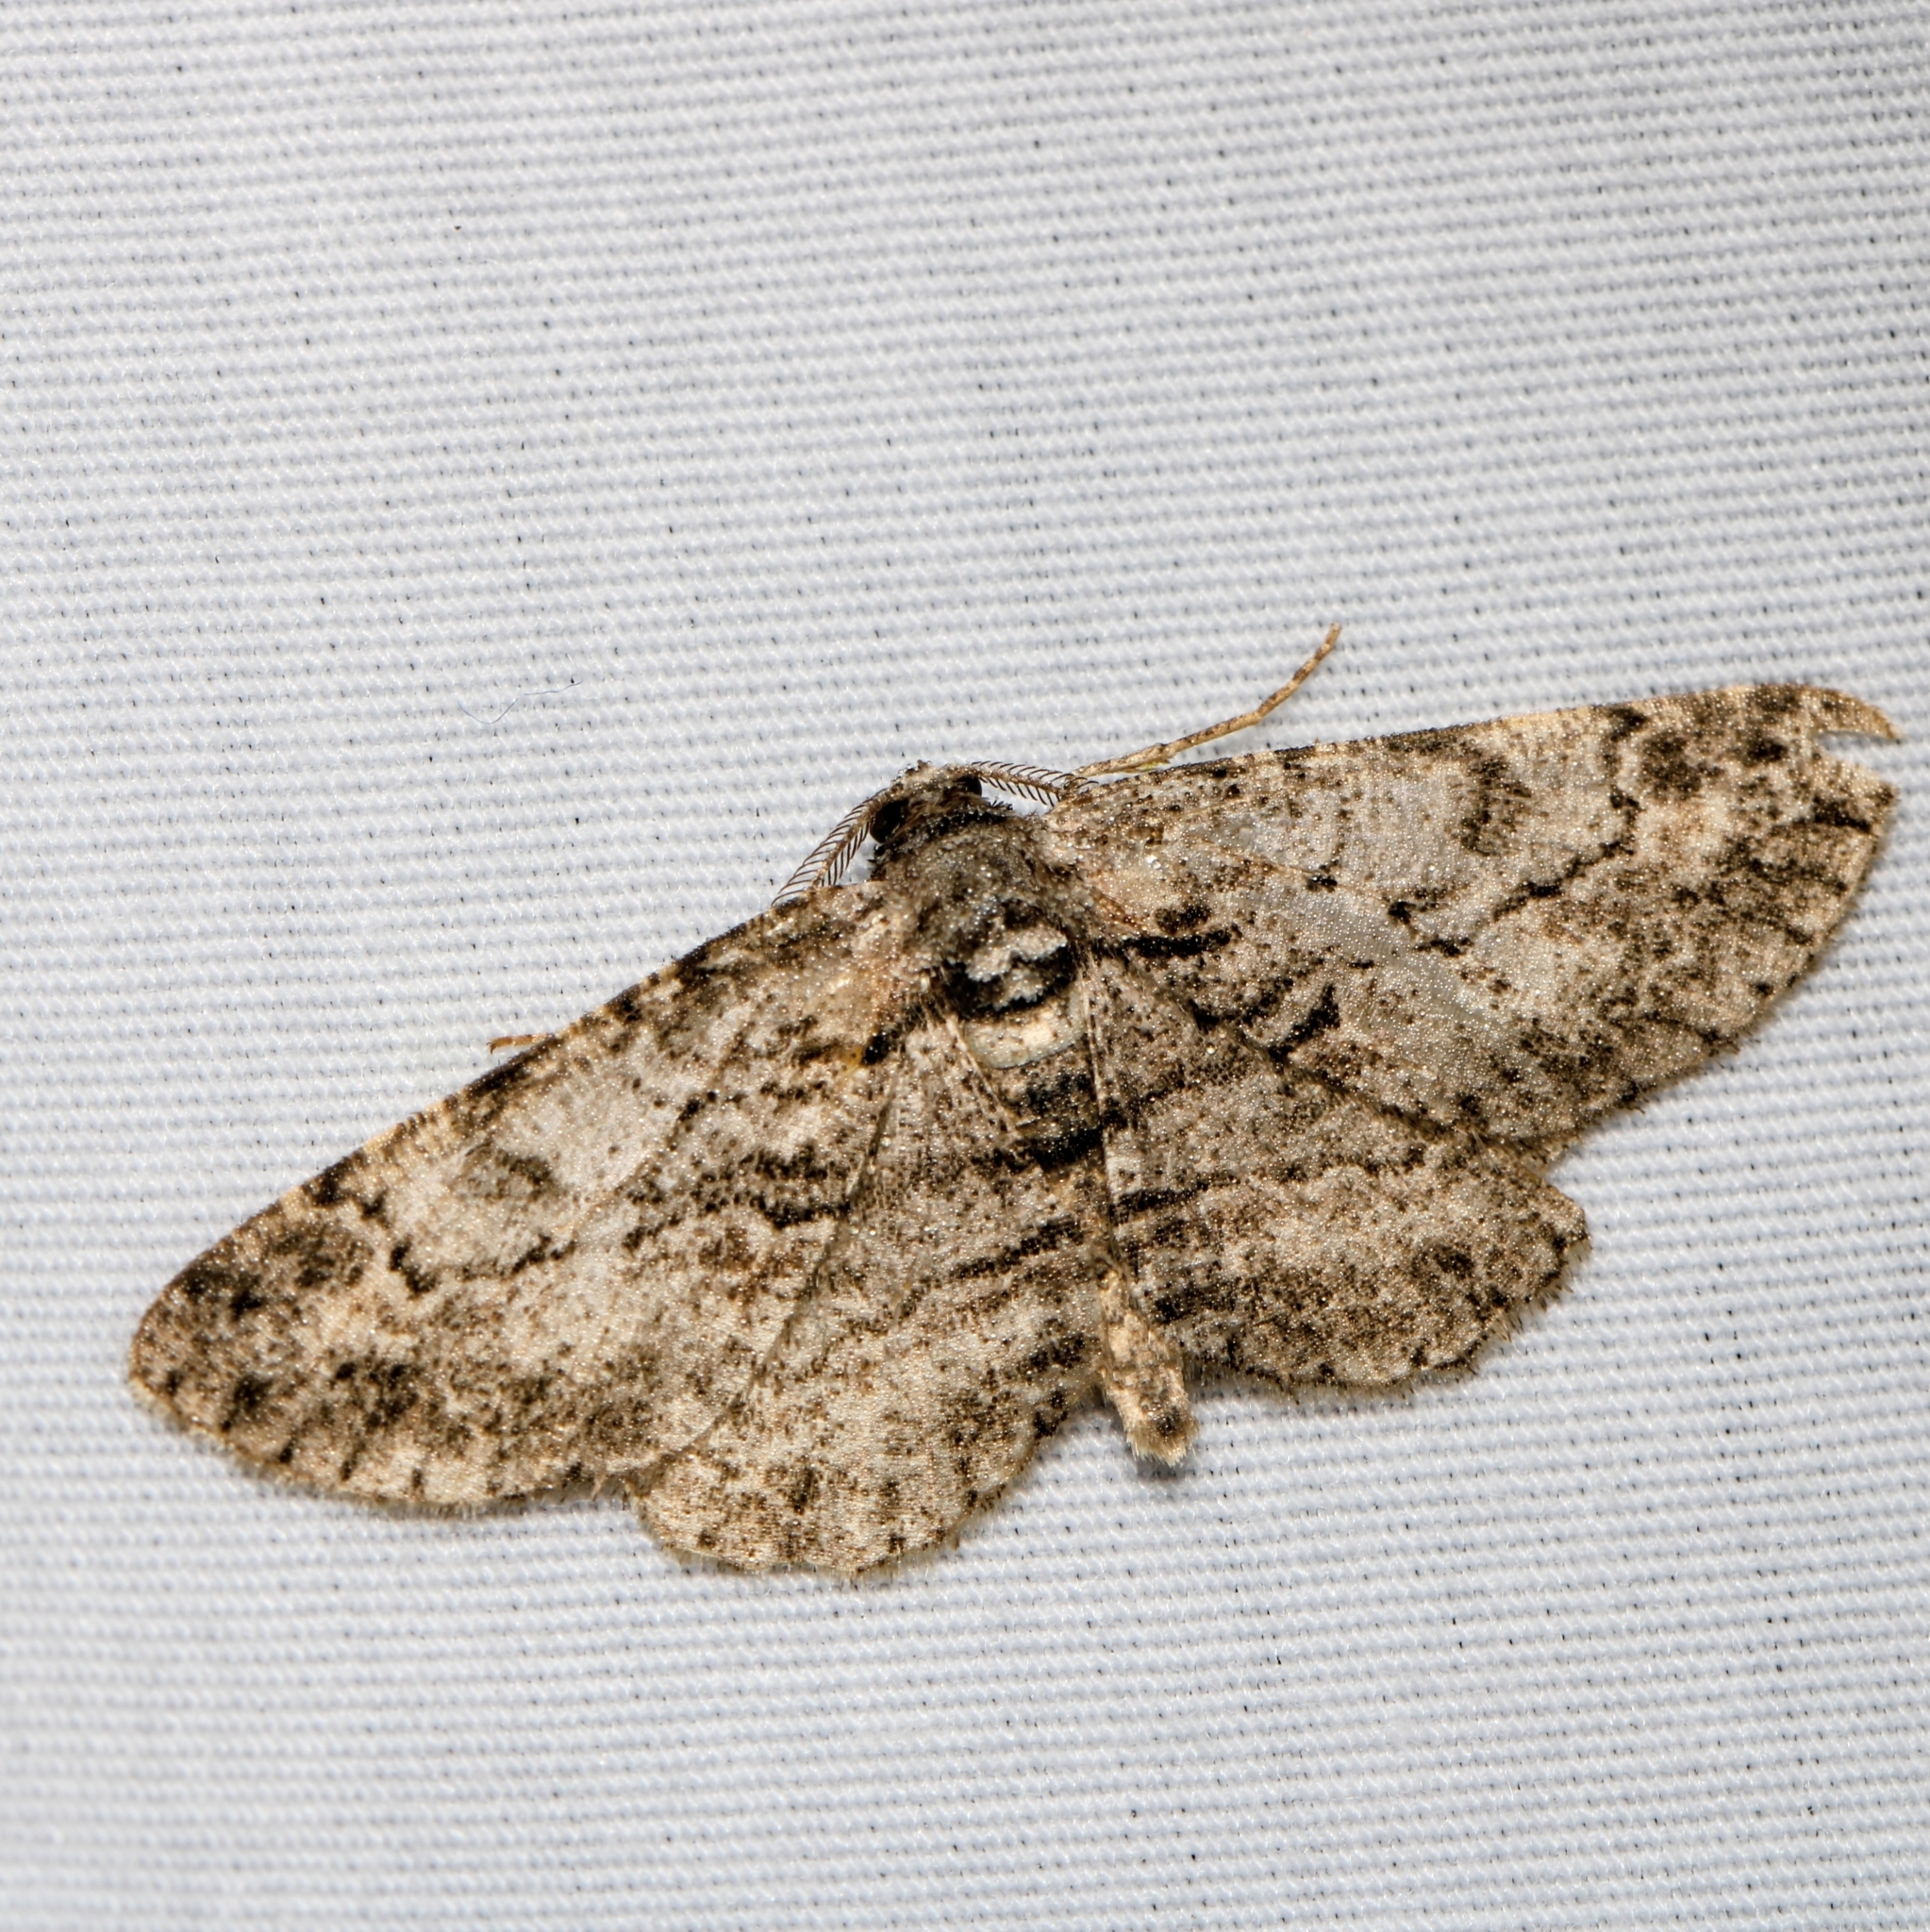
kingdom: Animalia
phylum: Arthropoda
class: Insecta
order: Lepidoptera
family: Geometridae
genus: Anavitrinella
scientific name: Anavitrinella pampinaria
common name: Common gray
